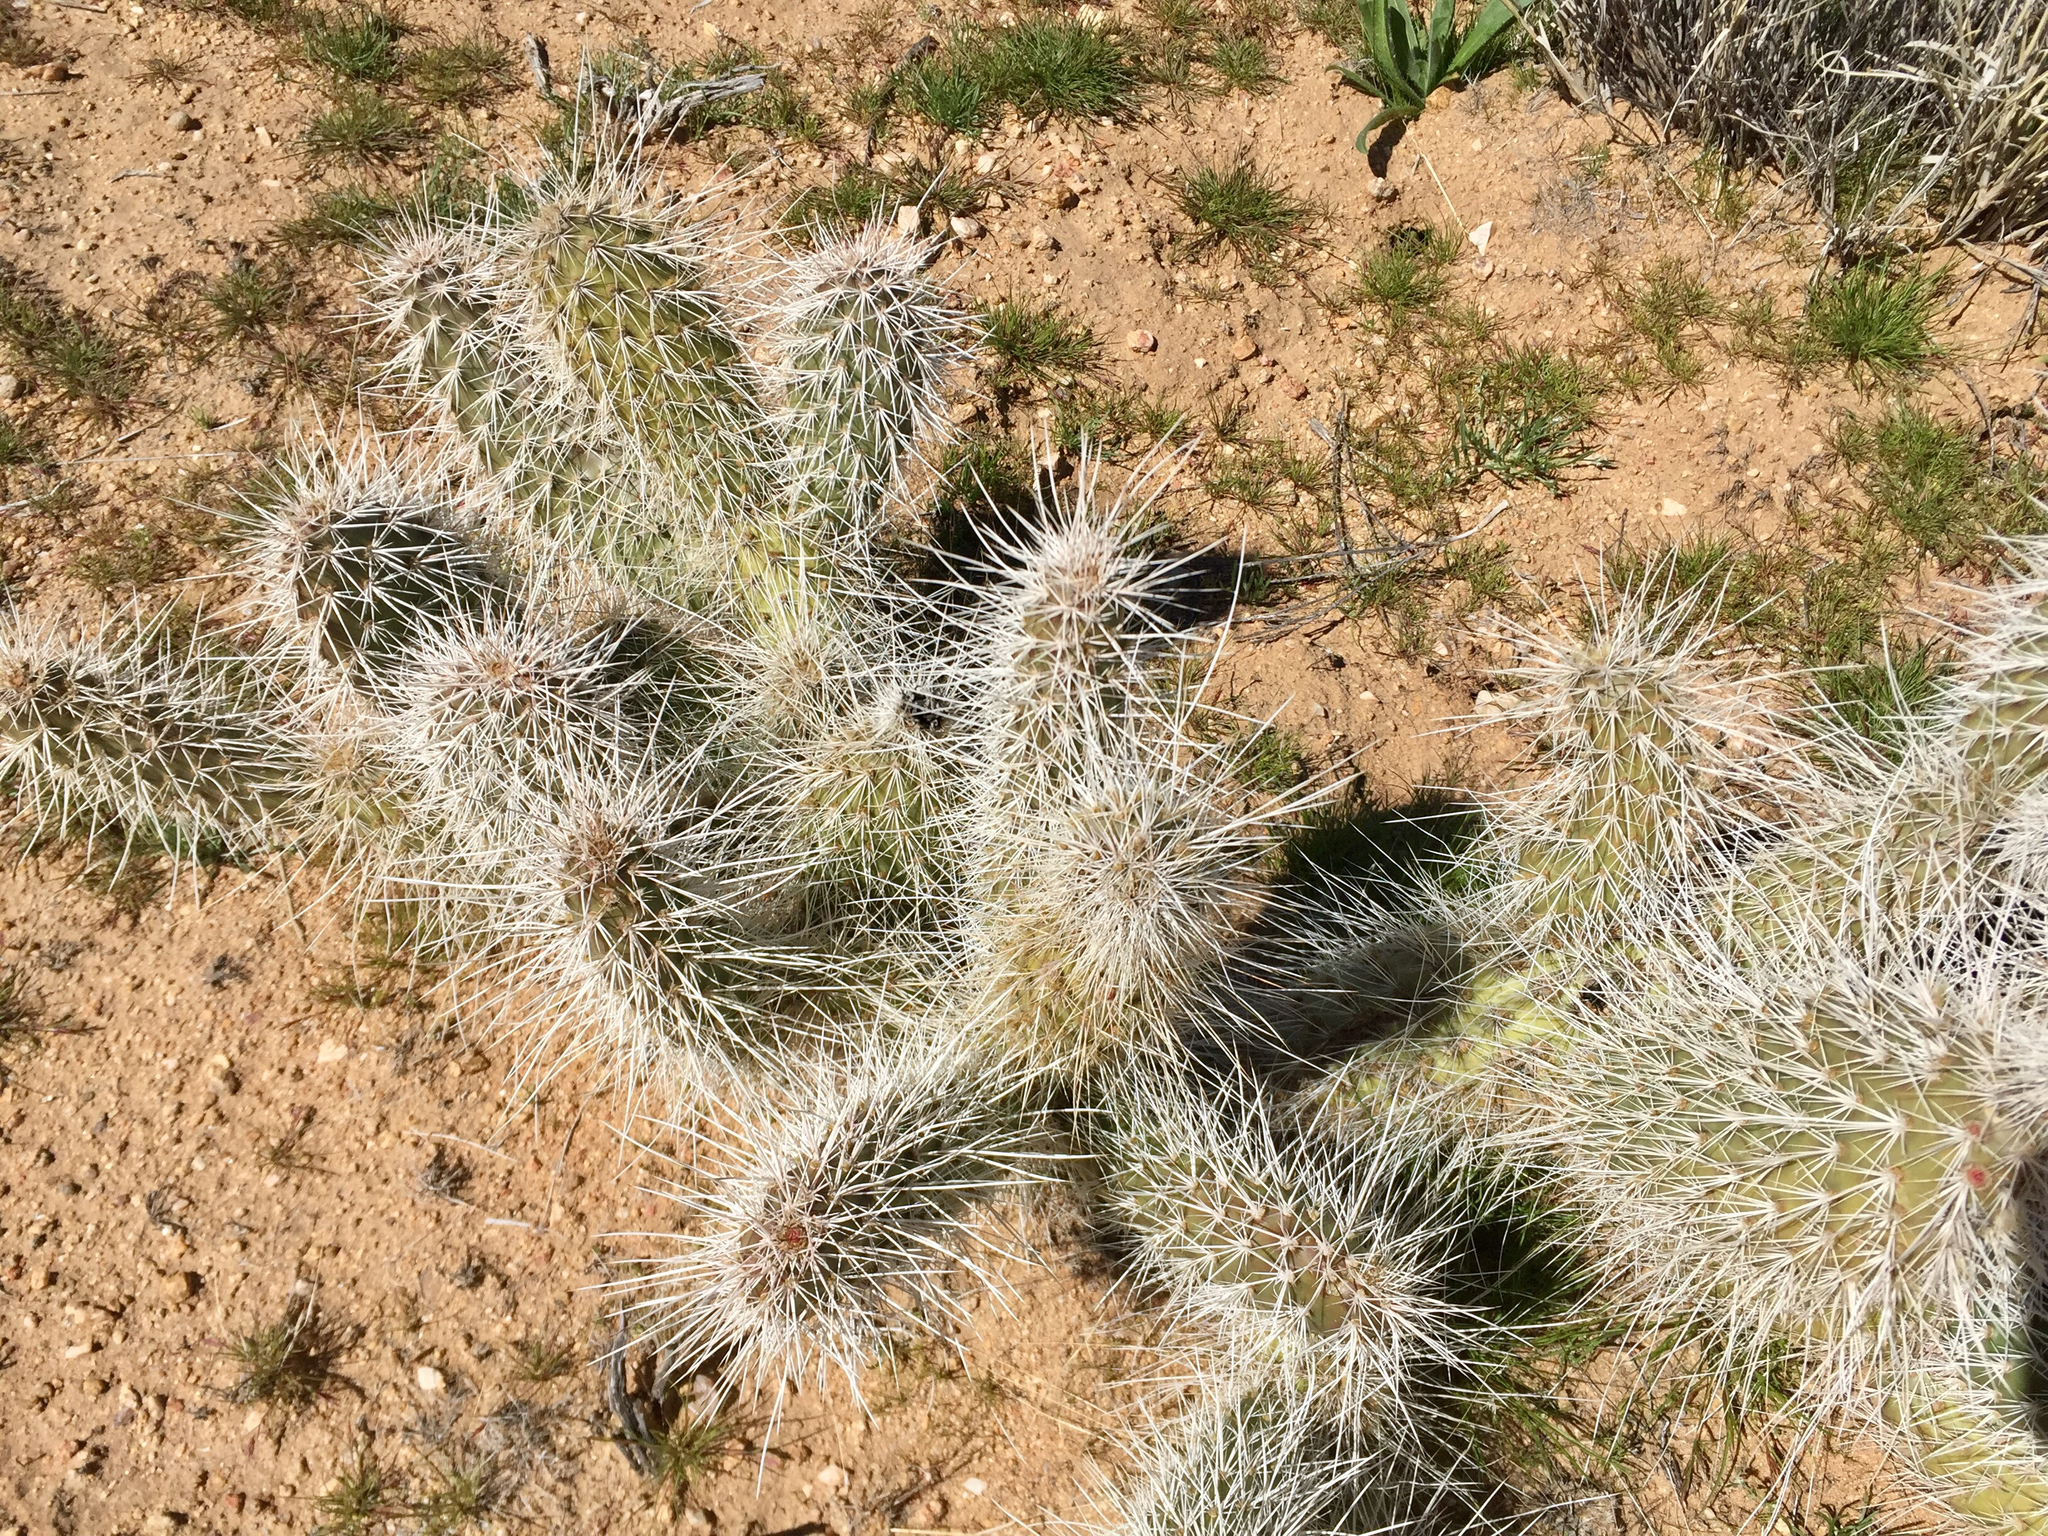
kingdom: Plantae
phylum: Tracheophyta
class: Magnoliopsida
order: Caryophyllales
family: Cactaceae
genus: Opuntia
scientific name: Opuntia polyacantha
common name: Plains prickly-pear
